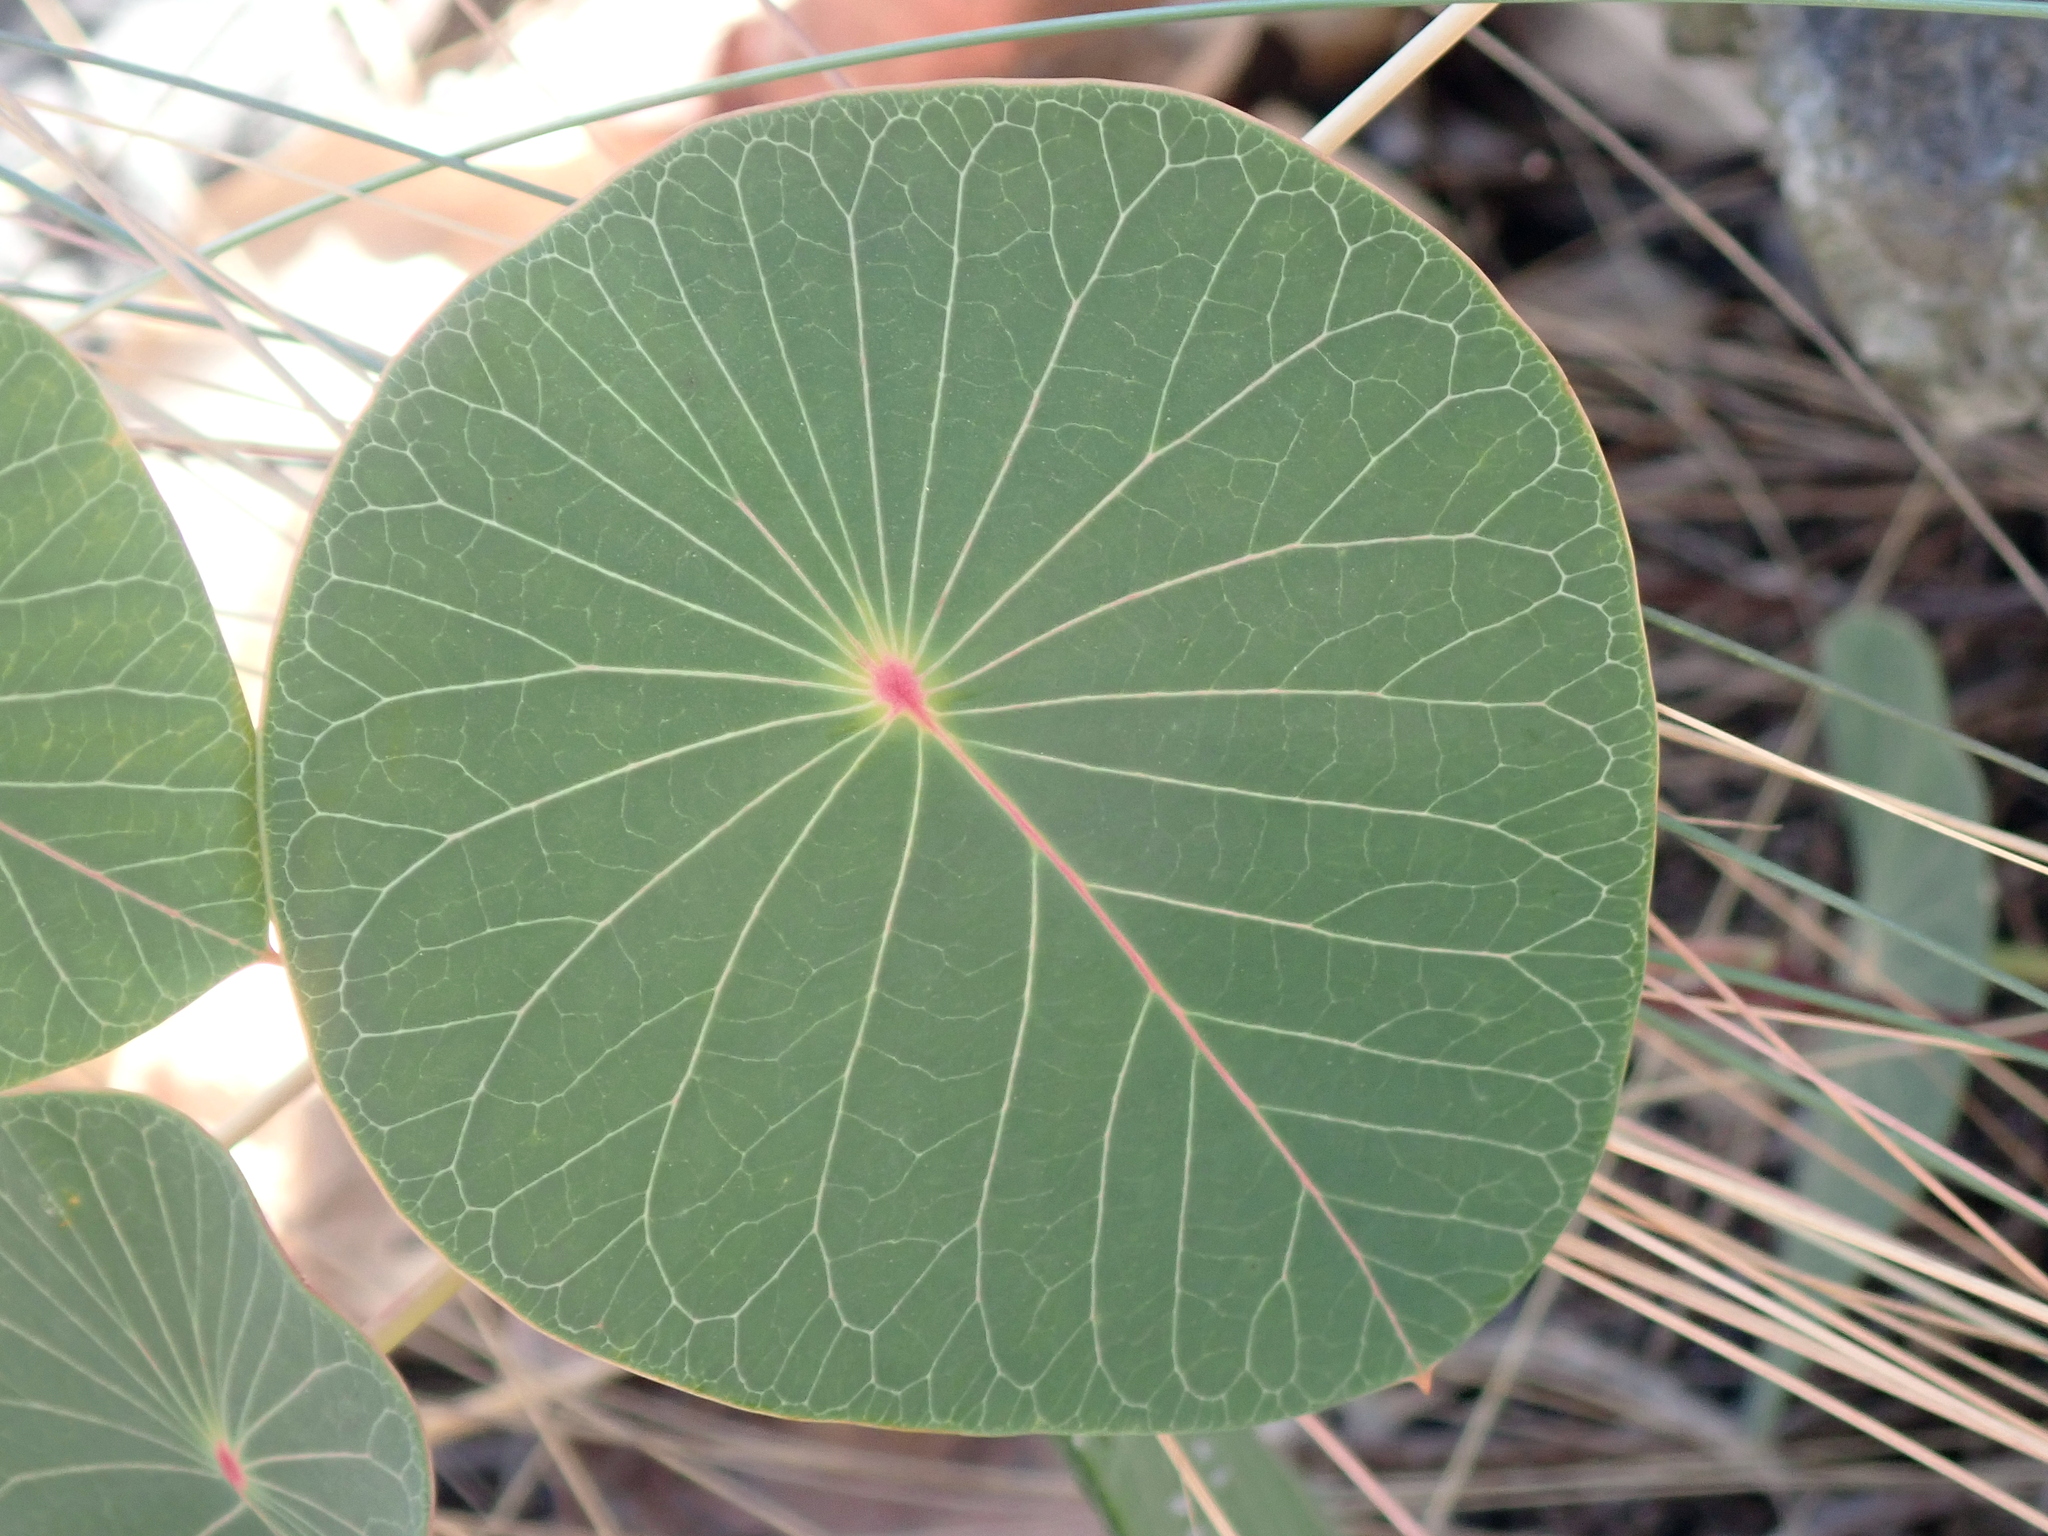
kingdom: Plantae
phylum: Tracheophyta
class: Magnoliopsida
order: Gentianales
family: Apocynaceae
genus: Stipecoma
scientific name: Stipecoma peltigera
